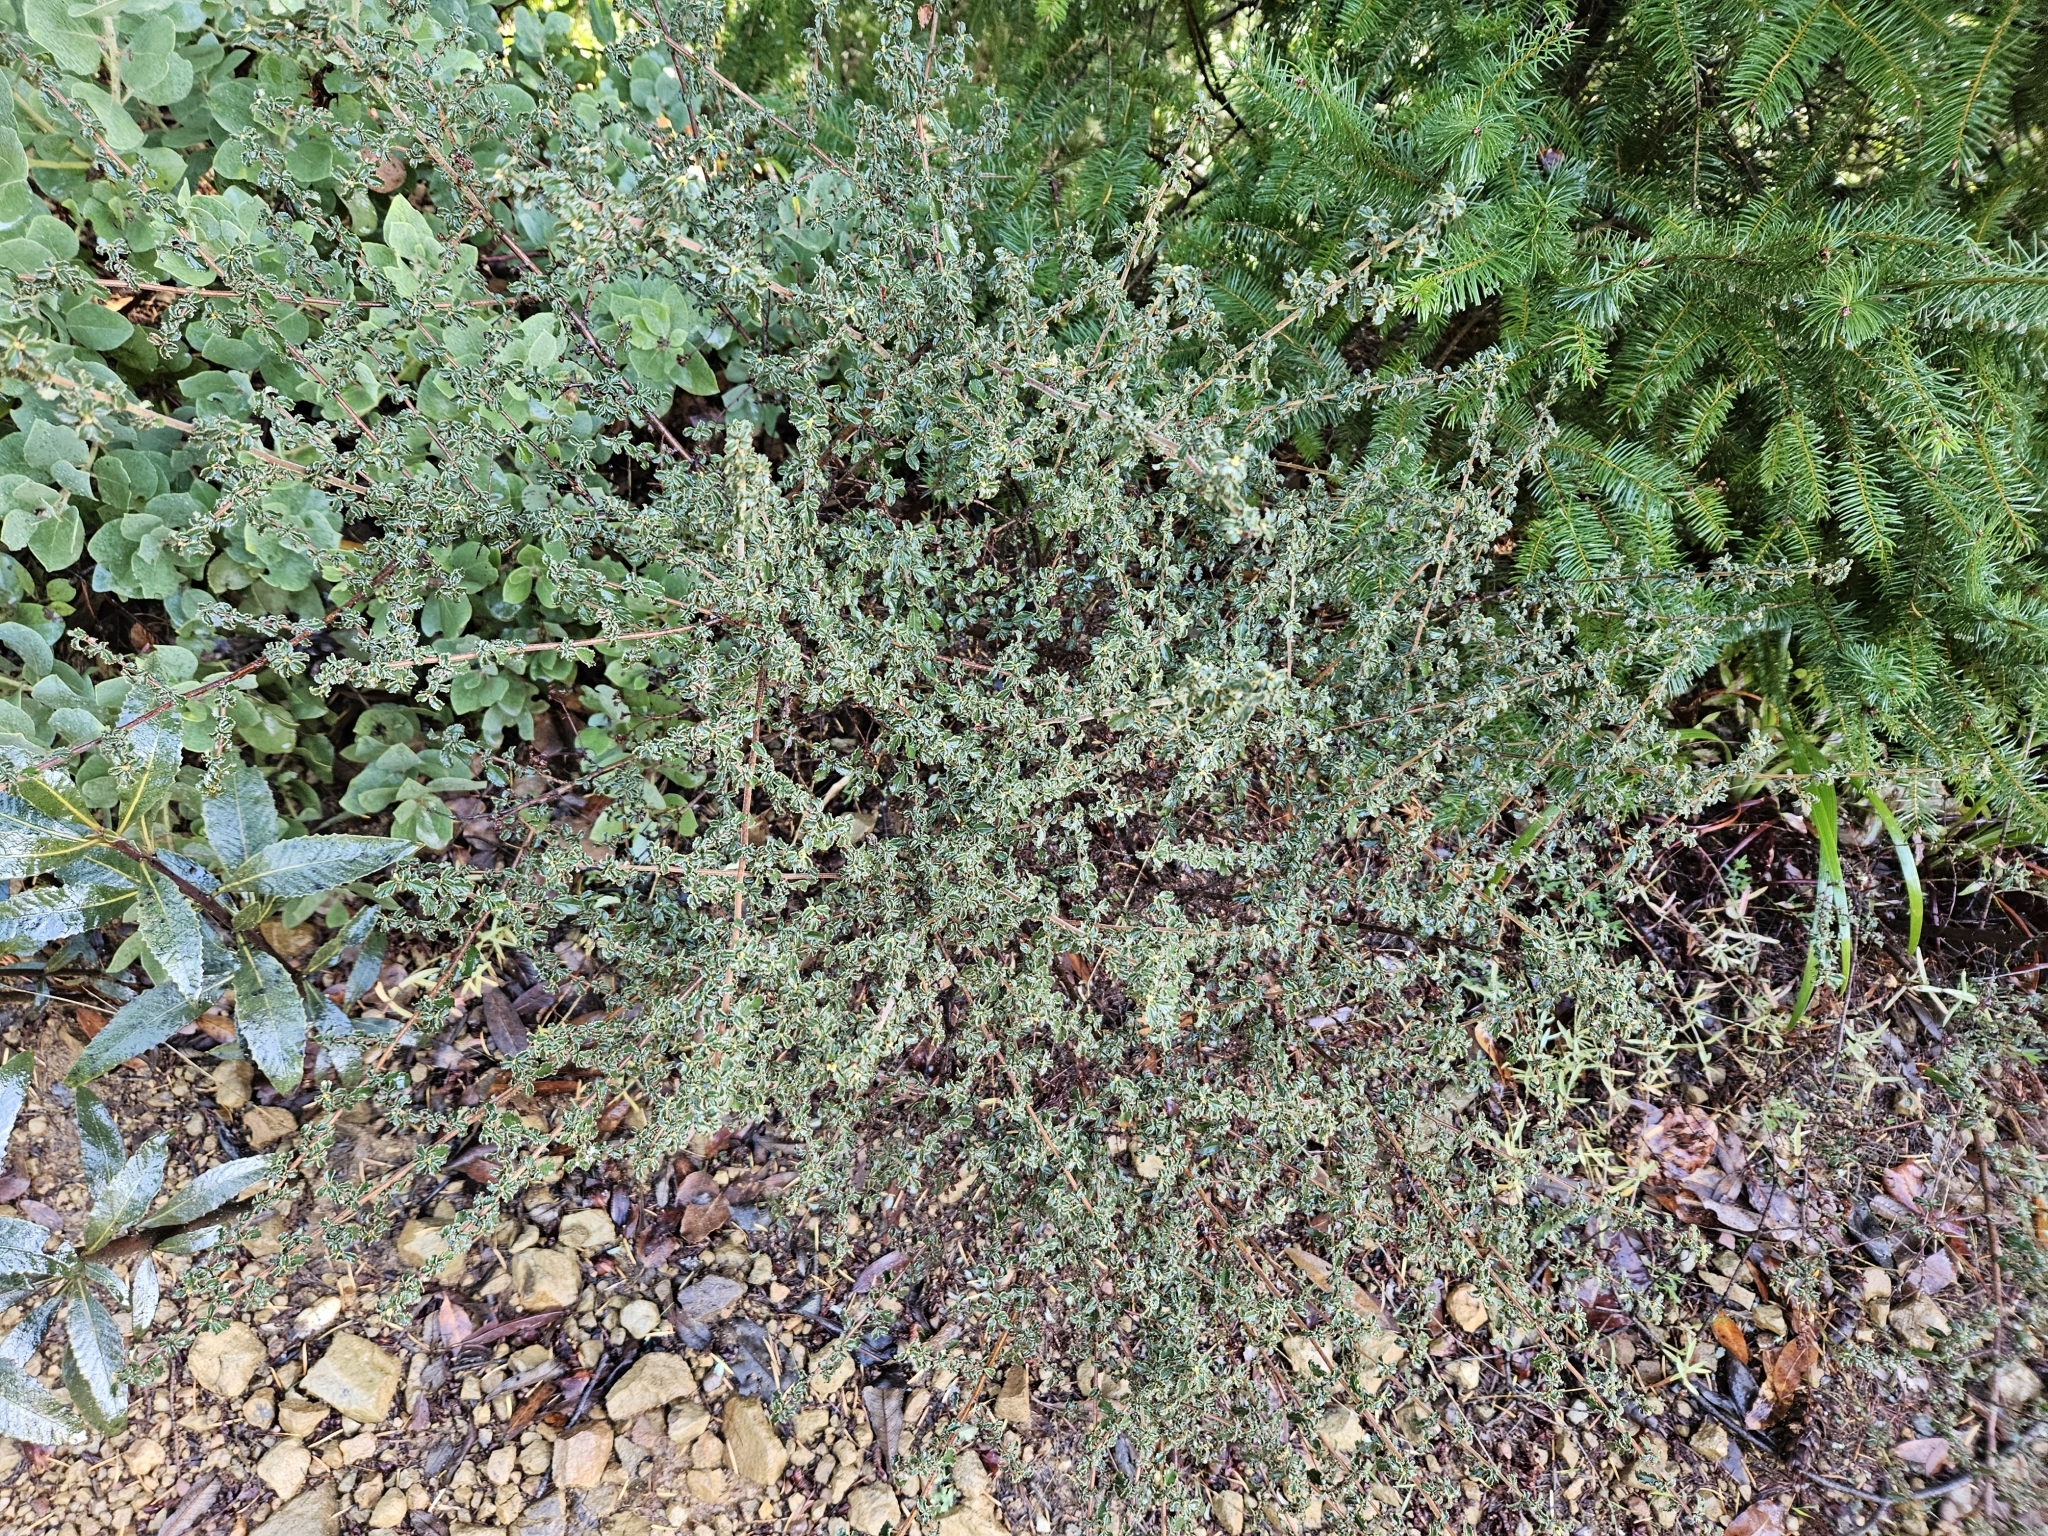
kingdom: Plantae
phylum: Tracheophyta
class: Magnoliopsida
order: Rosales
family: Rhamnaceae
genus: Ceanothus
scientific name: Ceanothus foliosus
